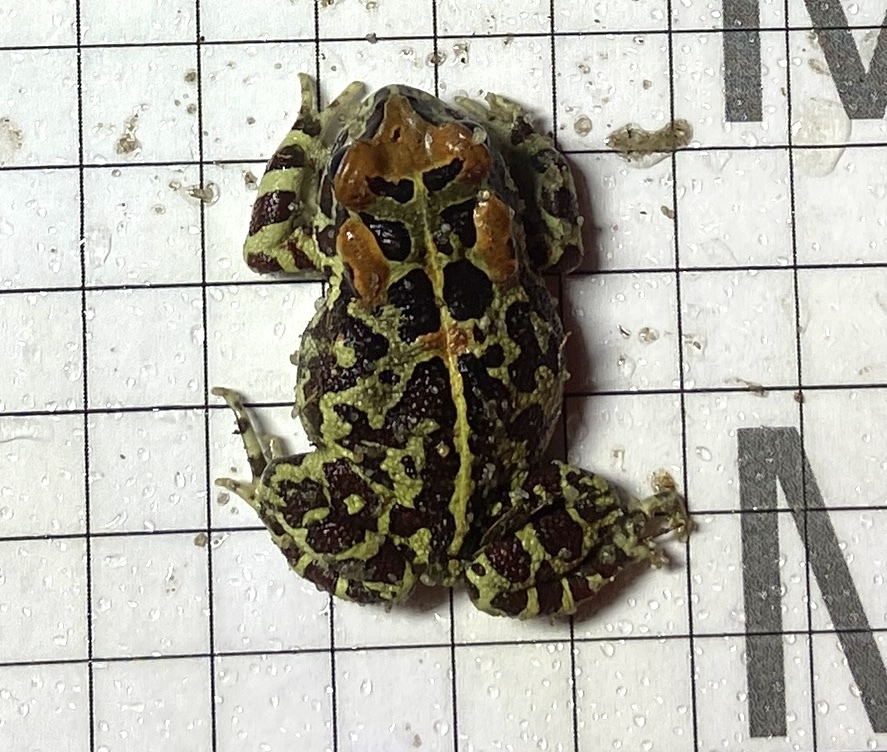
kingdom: Animalia
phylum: Chordata
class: Amphibia
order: Anura
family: Bufonidae
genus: Sclerophrys
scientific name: Sclerophrys pantherina
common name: Panther toad
